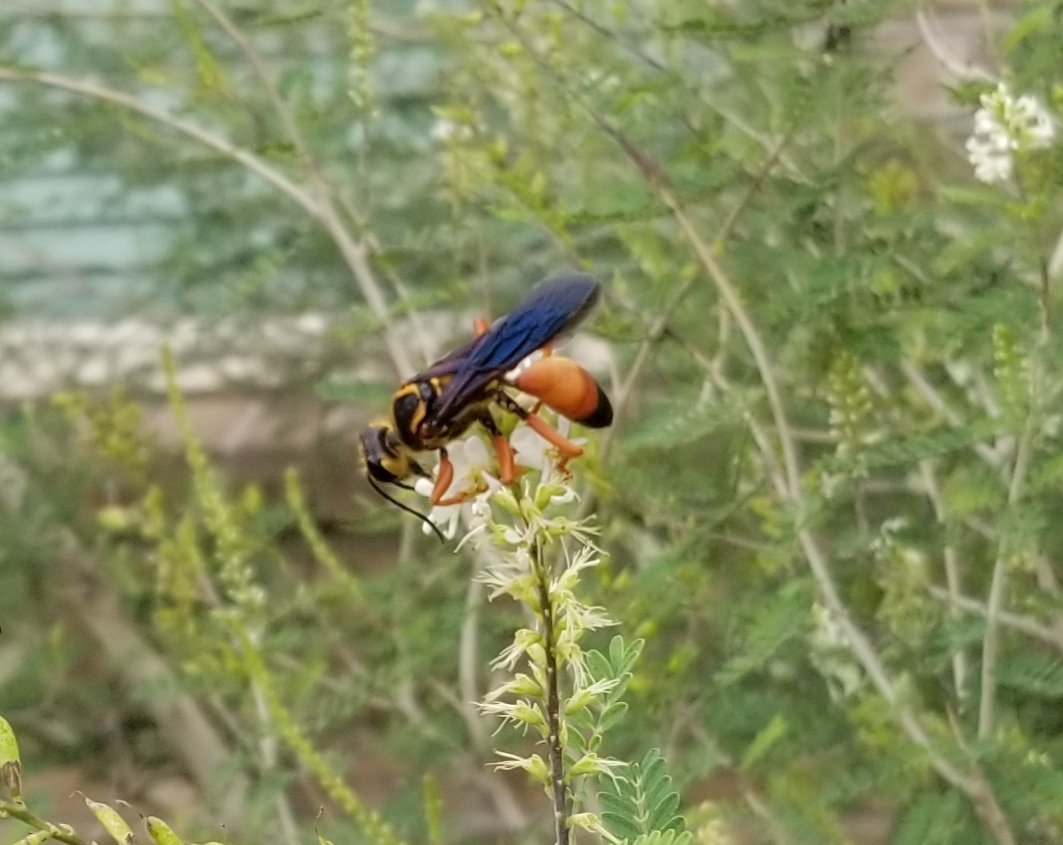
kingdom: Animalia
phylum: Arthropoda
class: Insecta
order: Hymenoptera
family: Sphecidae
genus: Sphex
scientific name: Sphex ichneumoneus
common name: Great golden digger wasp
